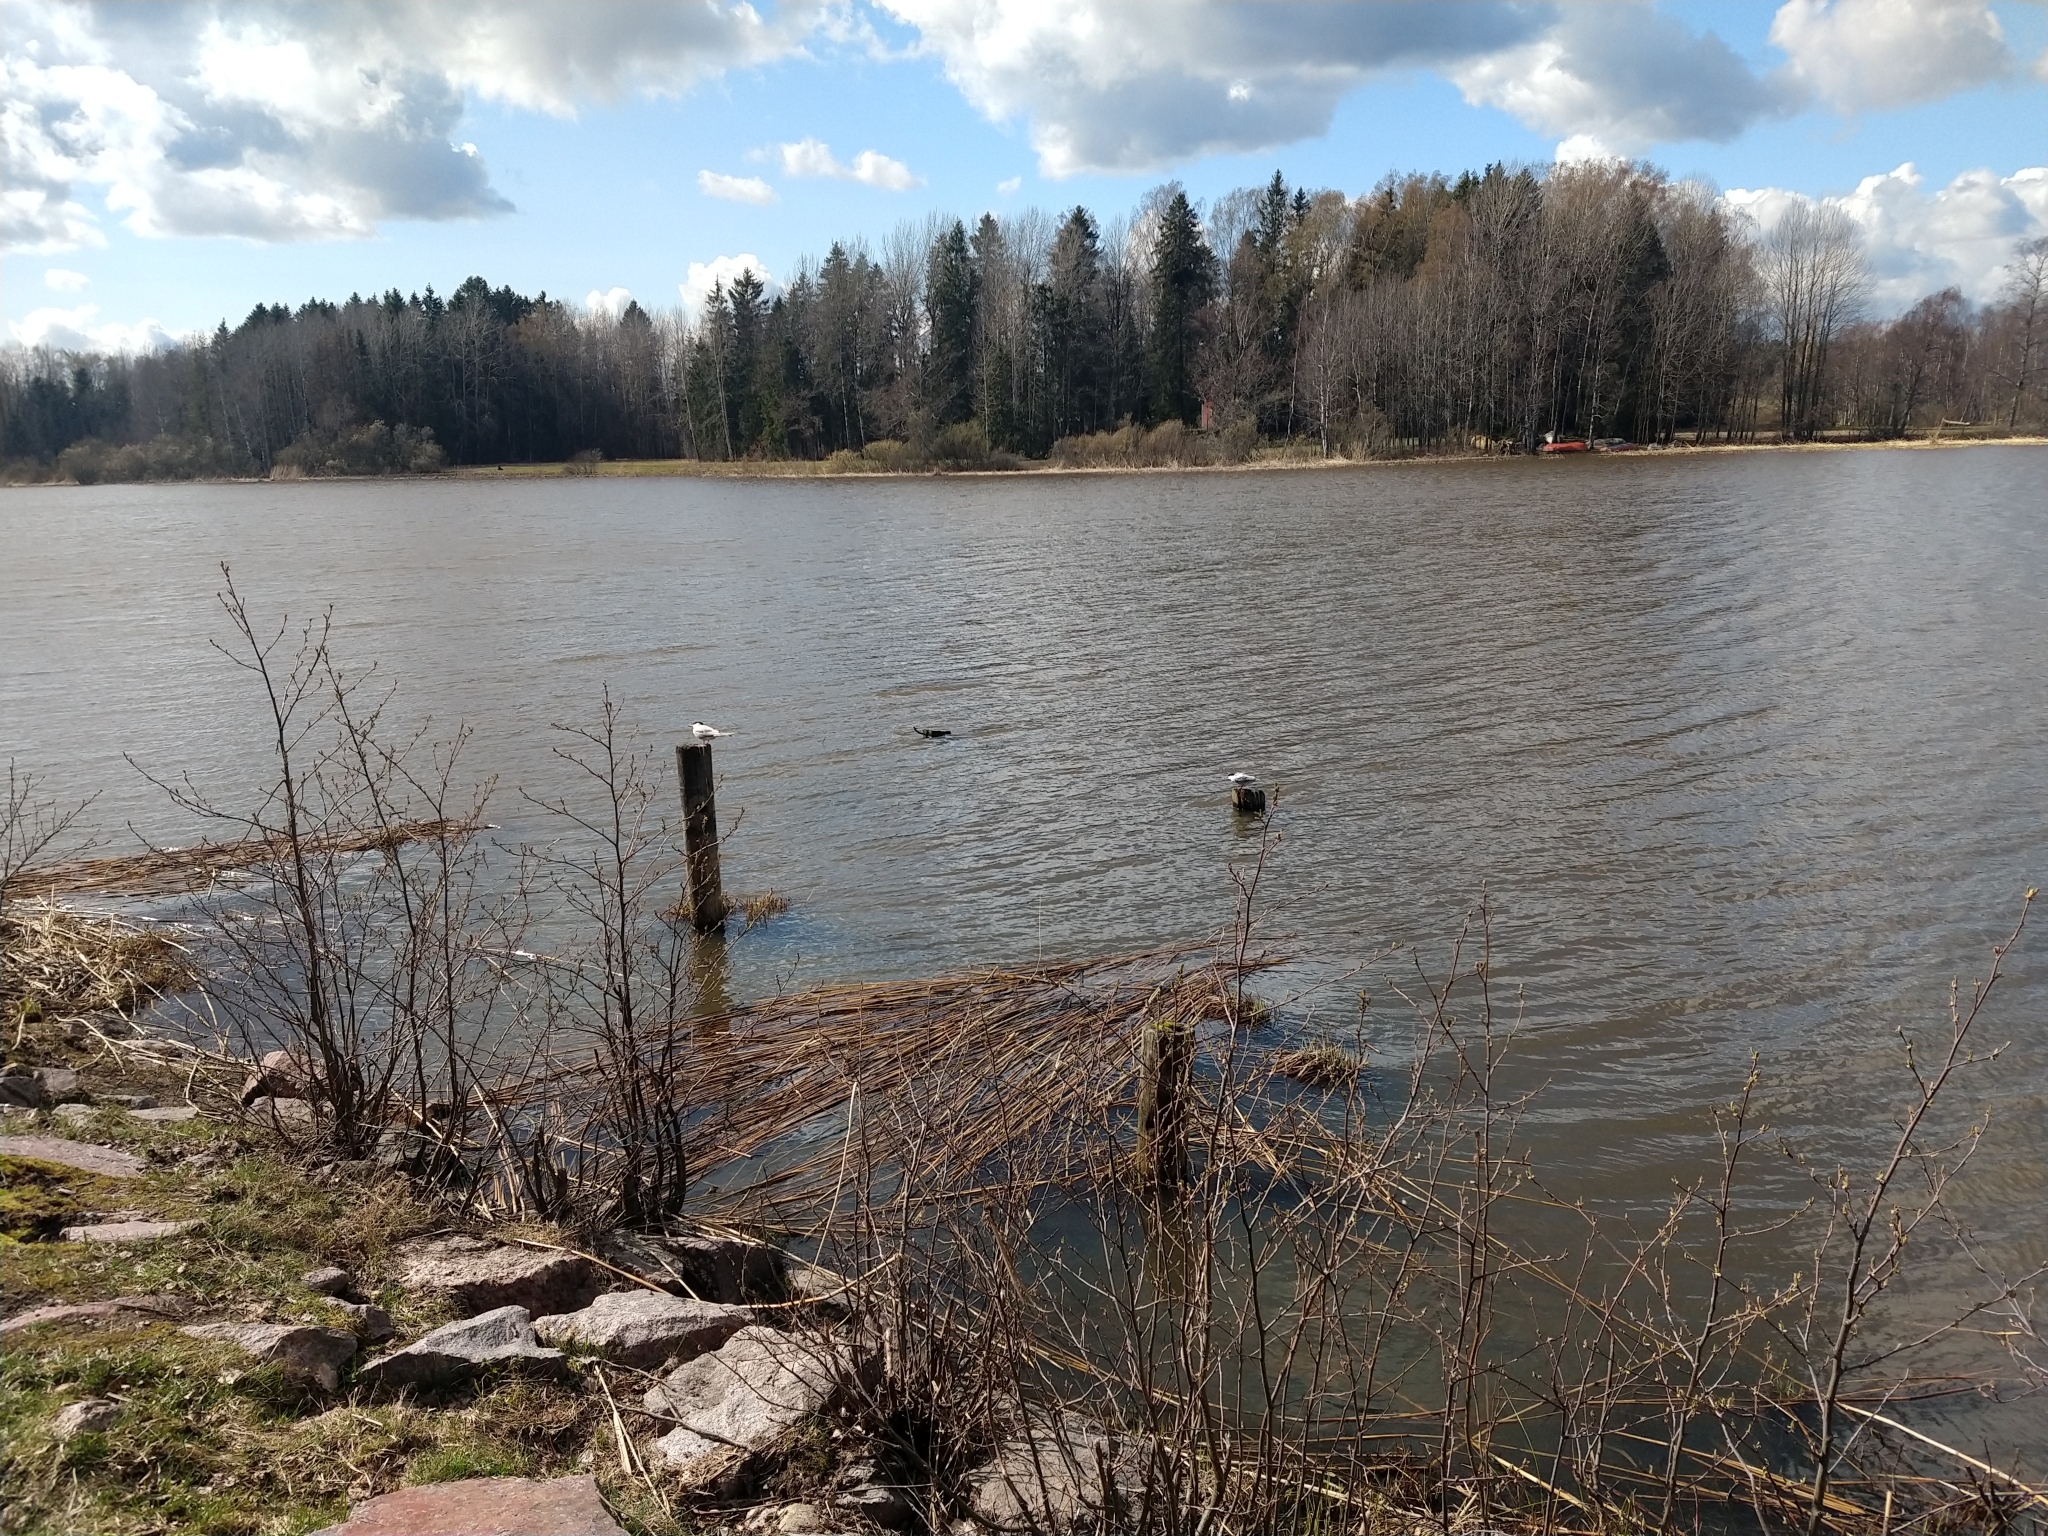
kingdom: Animalia
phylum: Chordata
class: Aves
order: Charadriiformes
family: Laridae
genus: Sterna
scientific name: Sterna hirundo
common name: Common tern
